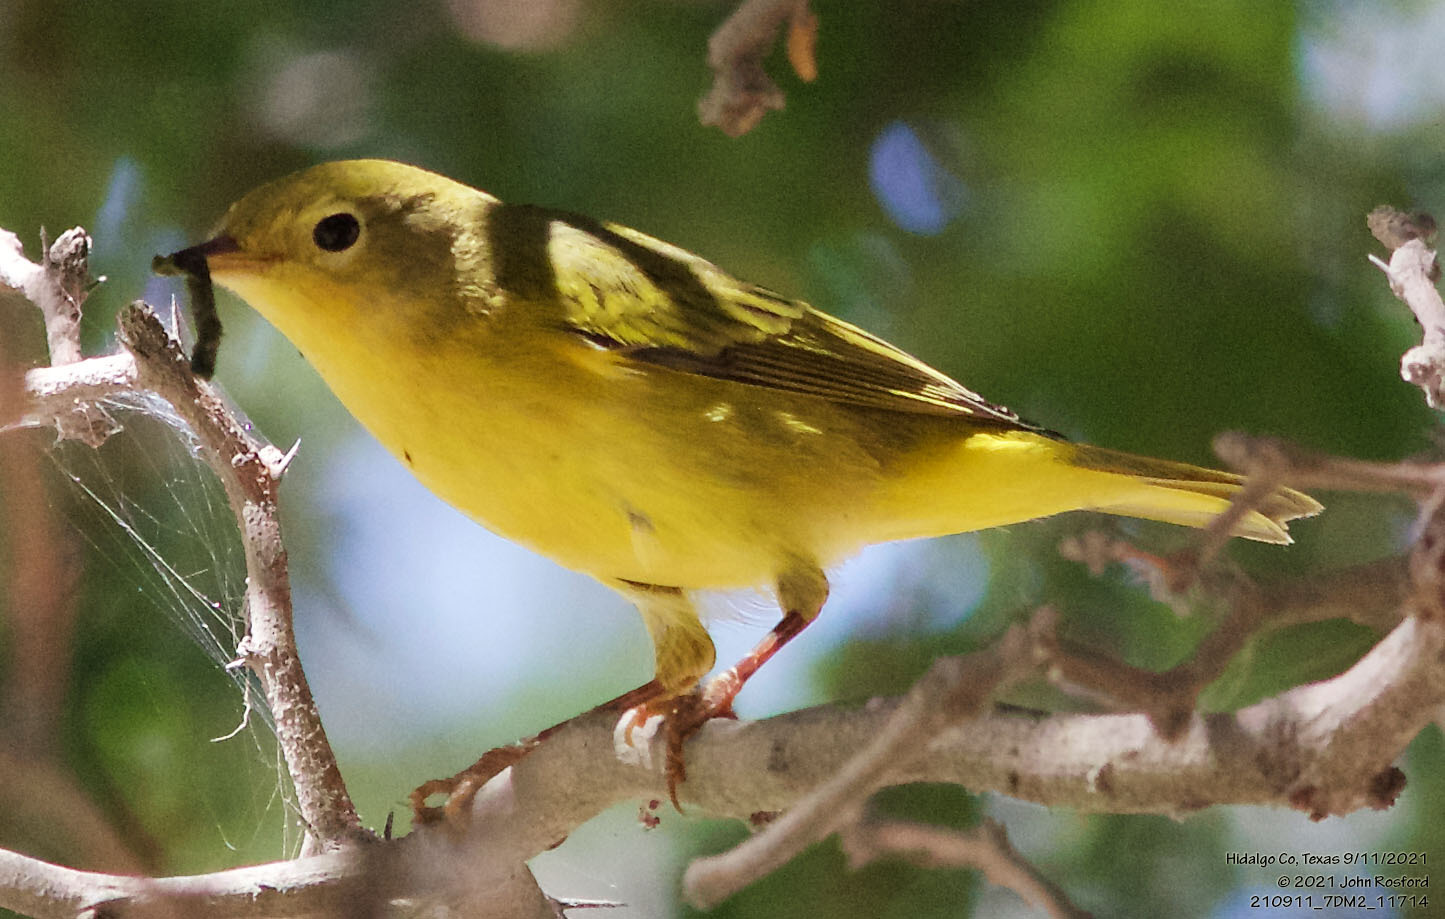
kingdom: Animalia
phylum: Chordata
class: Aves
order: Passeriformes
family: Parulidae
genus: Setophaga
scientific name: Setophaga petechia
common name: Yellow warbler
